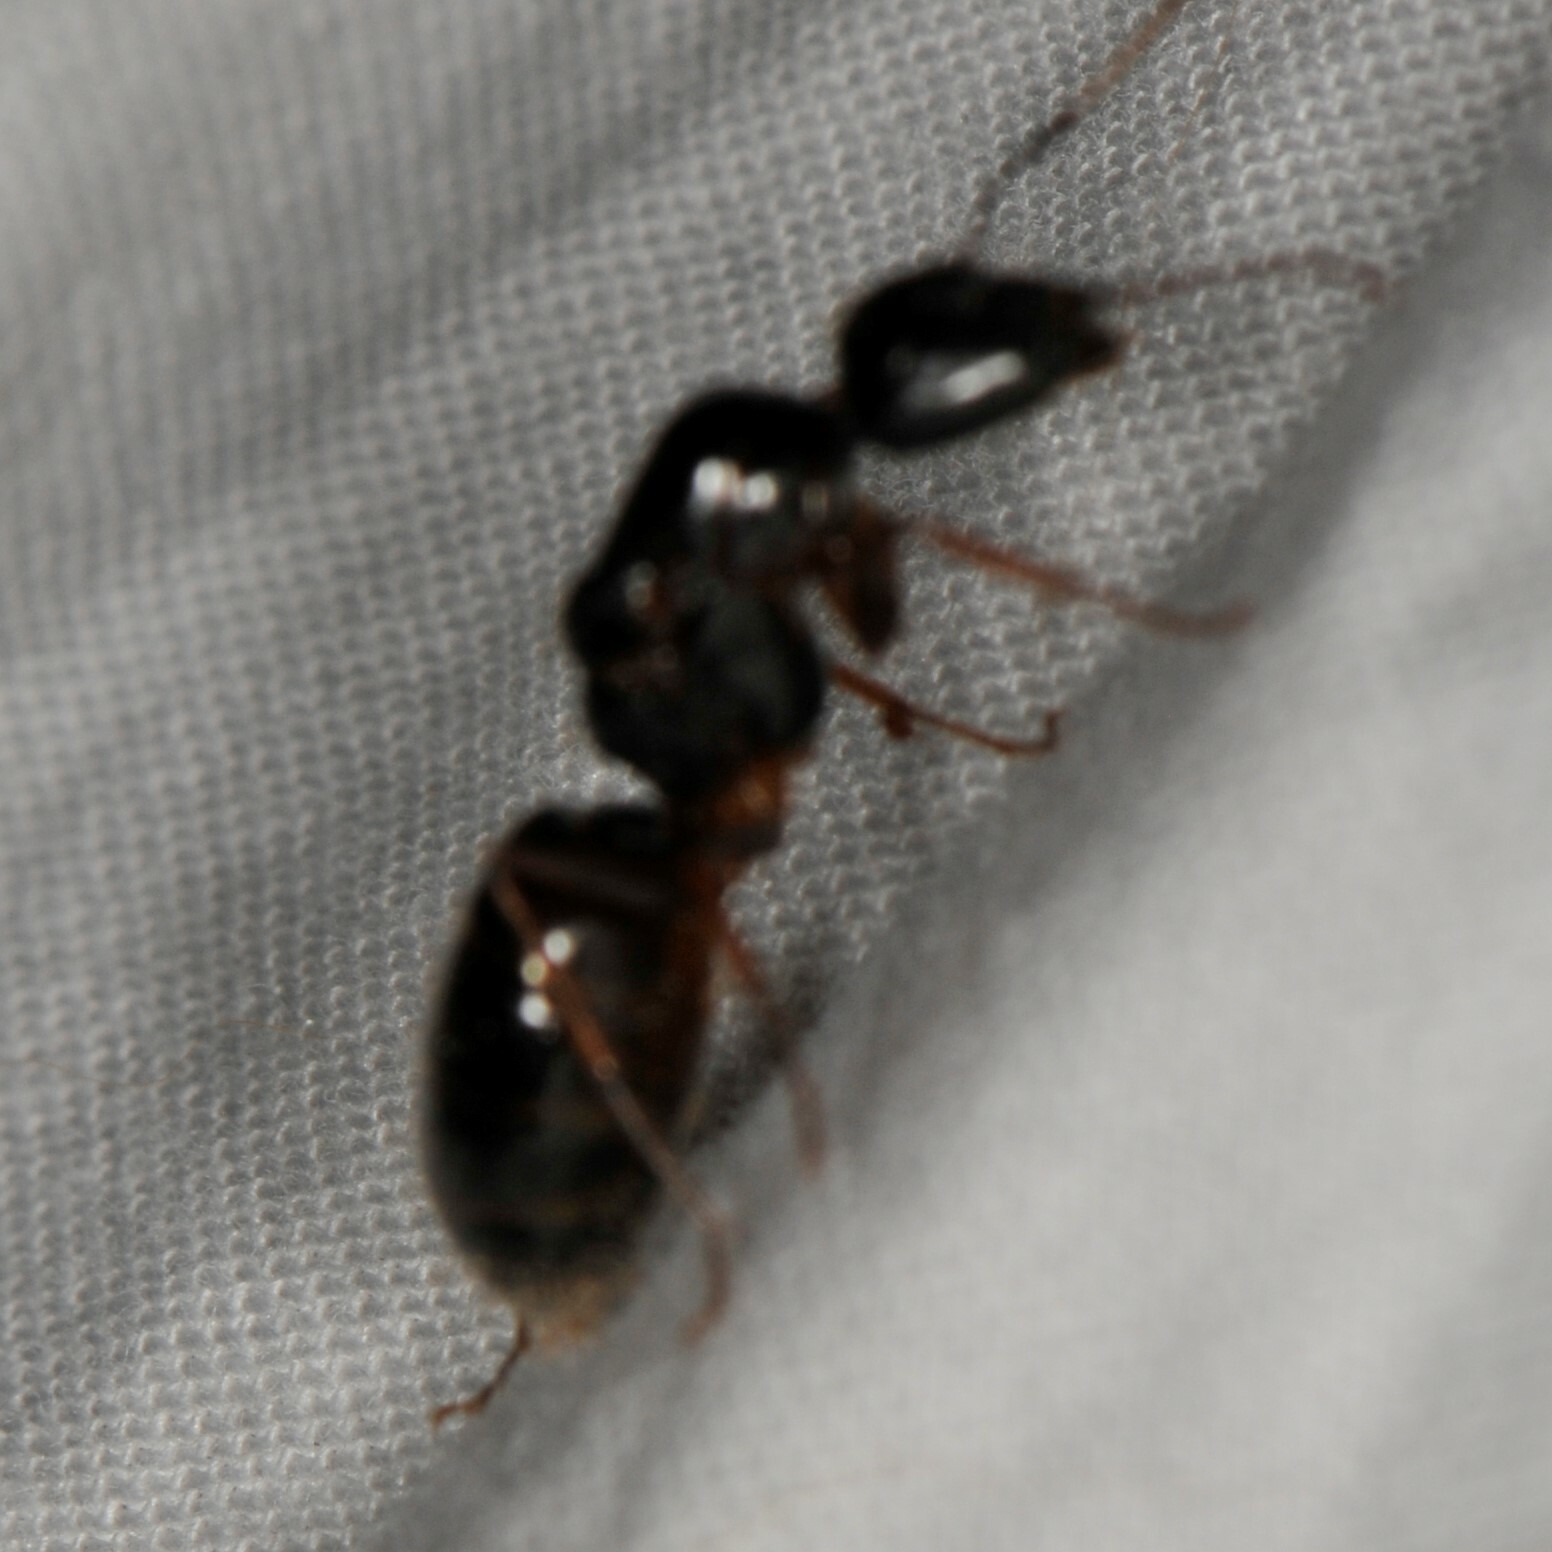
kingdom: Animalia
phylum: Arthropoda
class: Insecta
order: Hymenoptera
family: Formicidae
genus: Camponotus
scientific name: Camponotus
